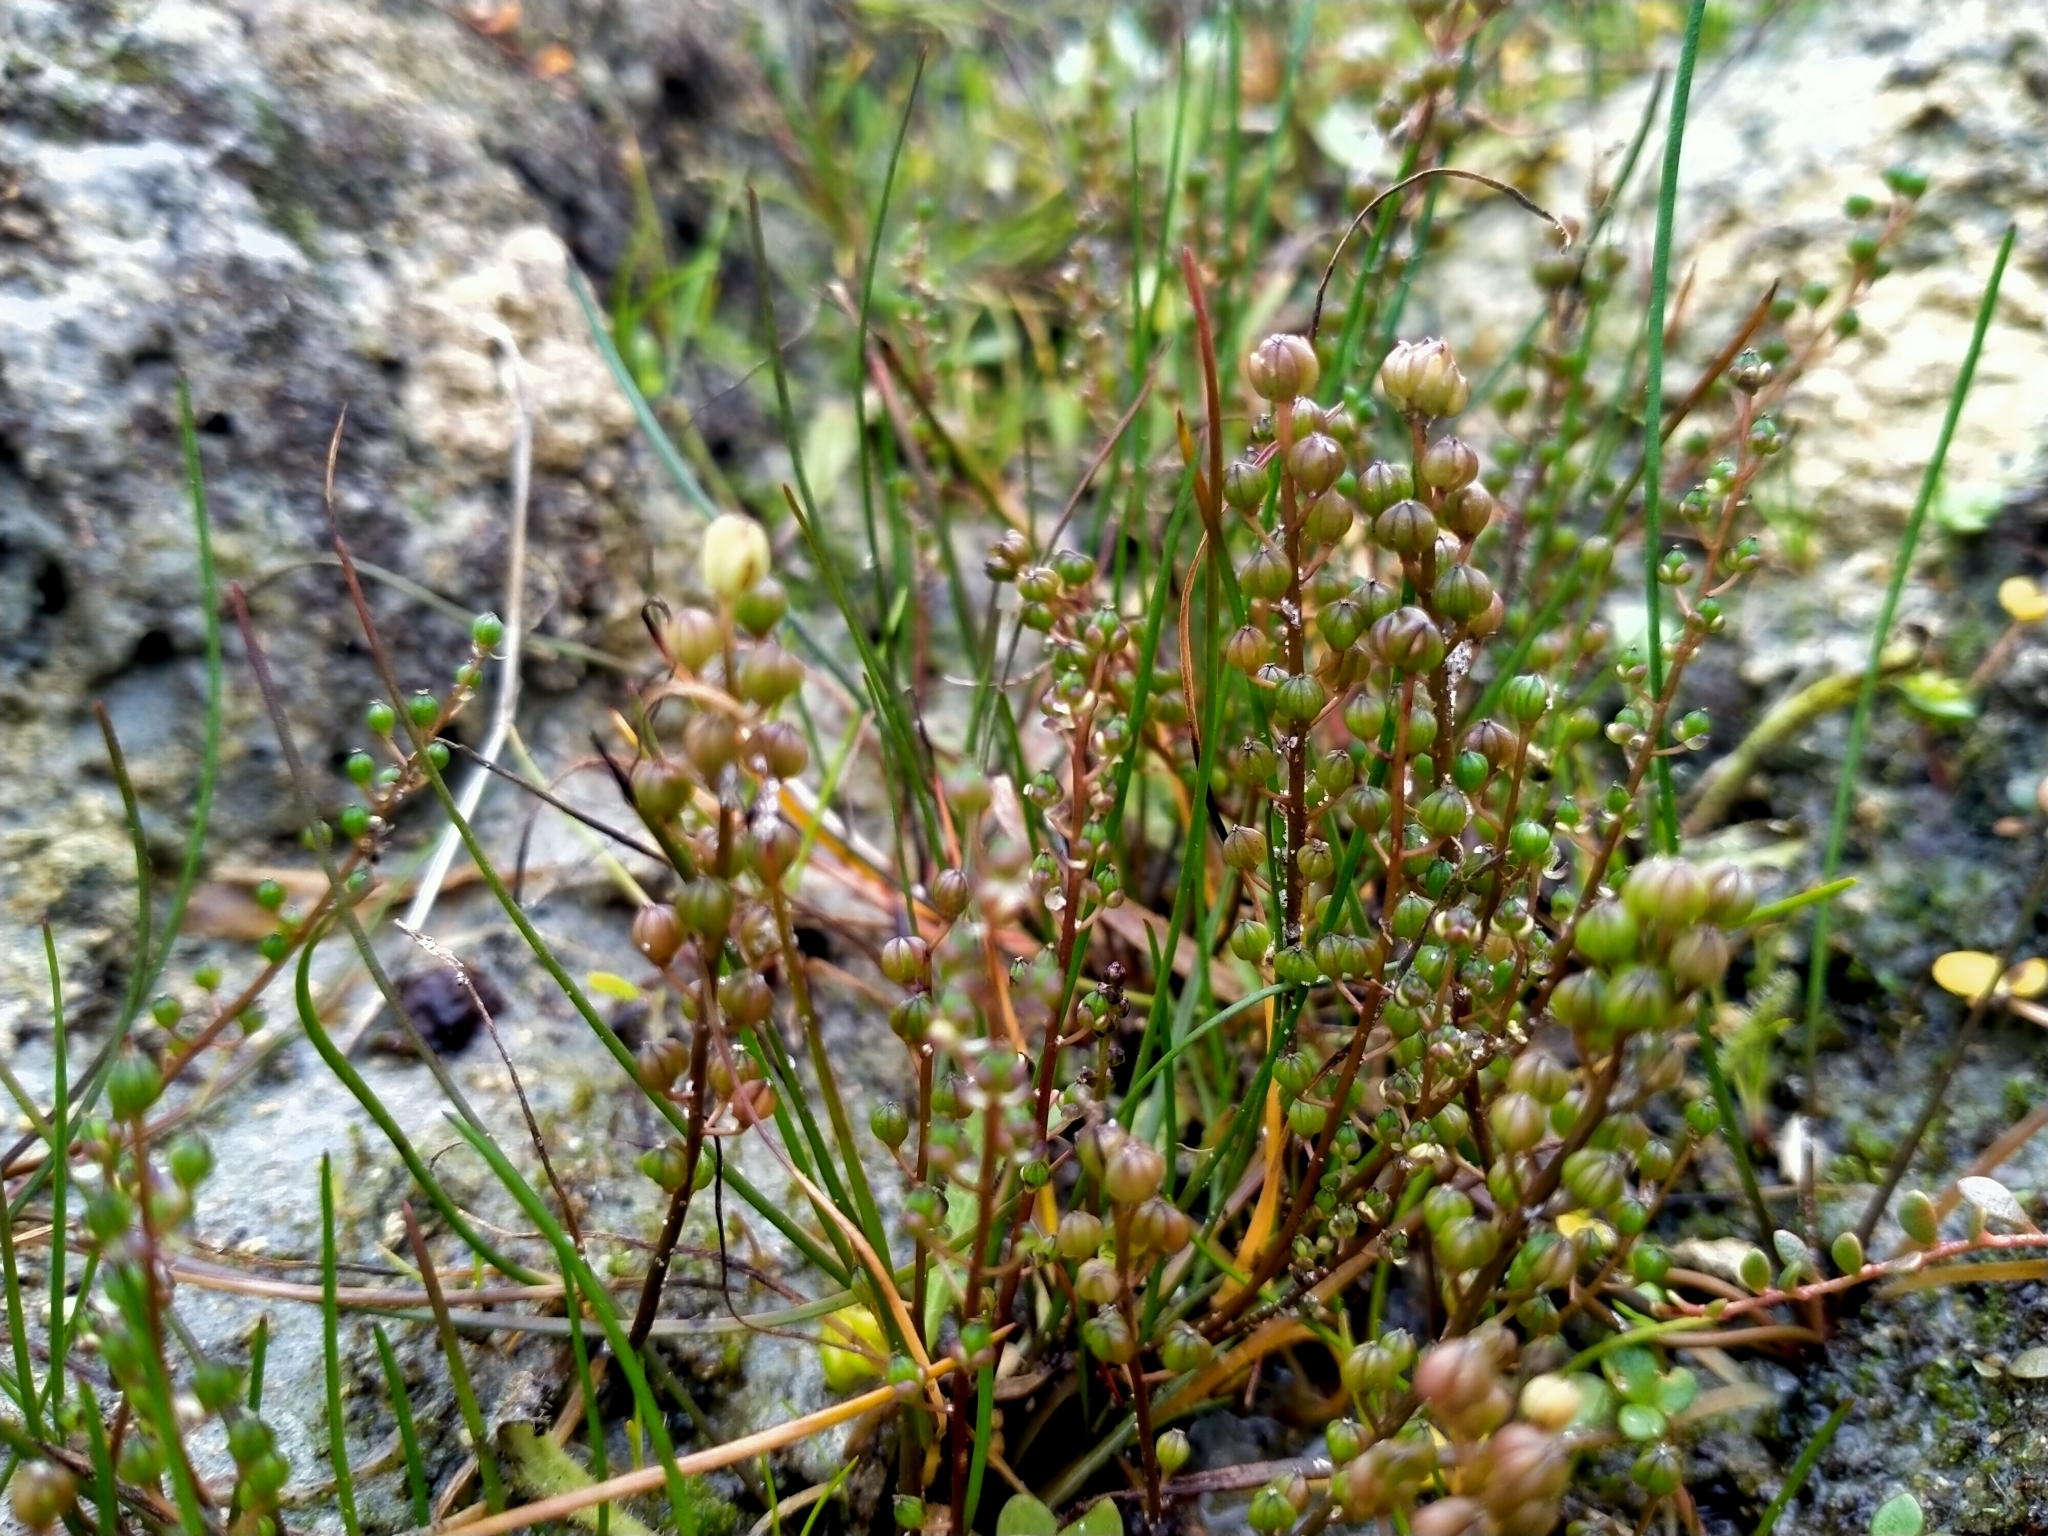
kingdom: Plantae
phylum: Tracheophyta
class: Liliopsida
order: Alismatales
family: Juncaginaceae
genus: Triglochin
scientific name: Triglochin striata
